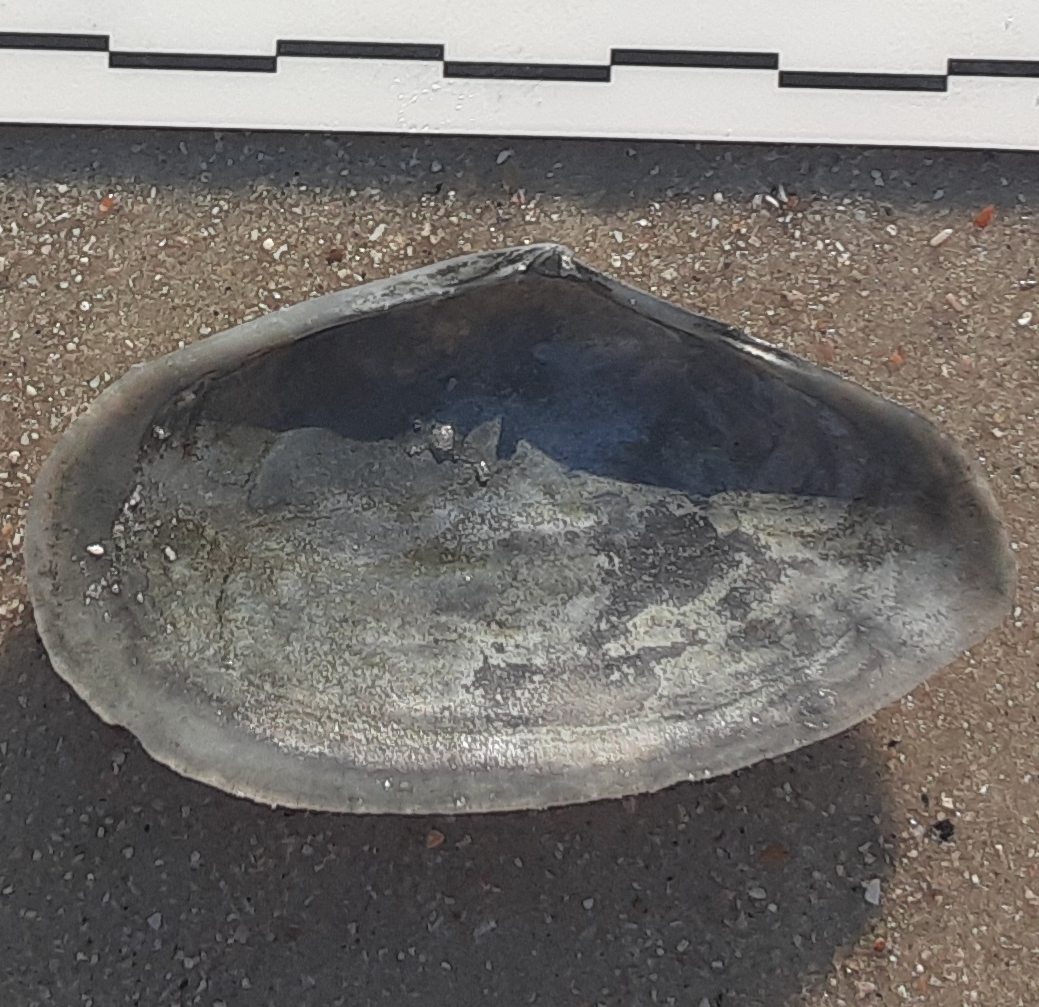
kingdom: Animalia
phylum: Mollusca
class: Bivalvia
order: Cardiida
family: Tellinidae
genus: Eurytellina
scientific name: Eurytellina alternata
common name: Alternate tellin
